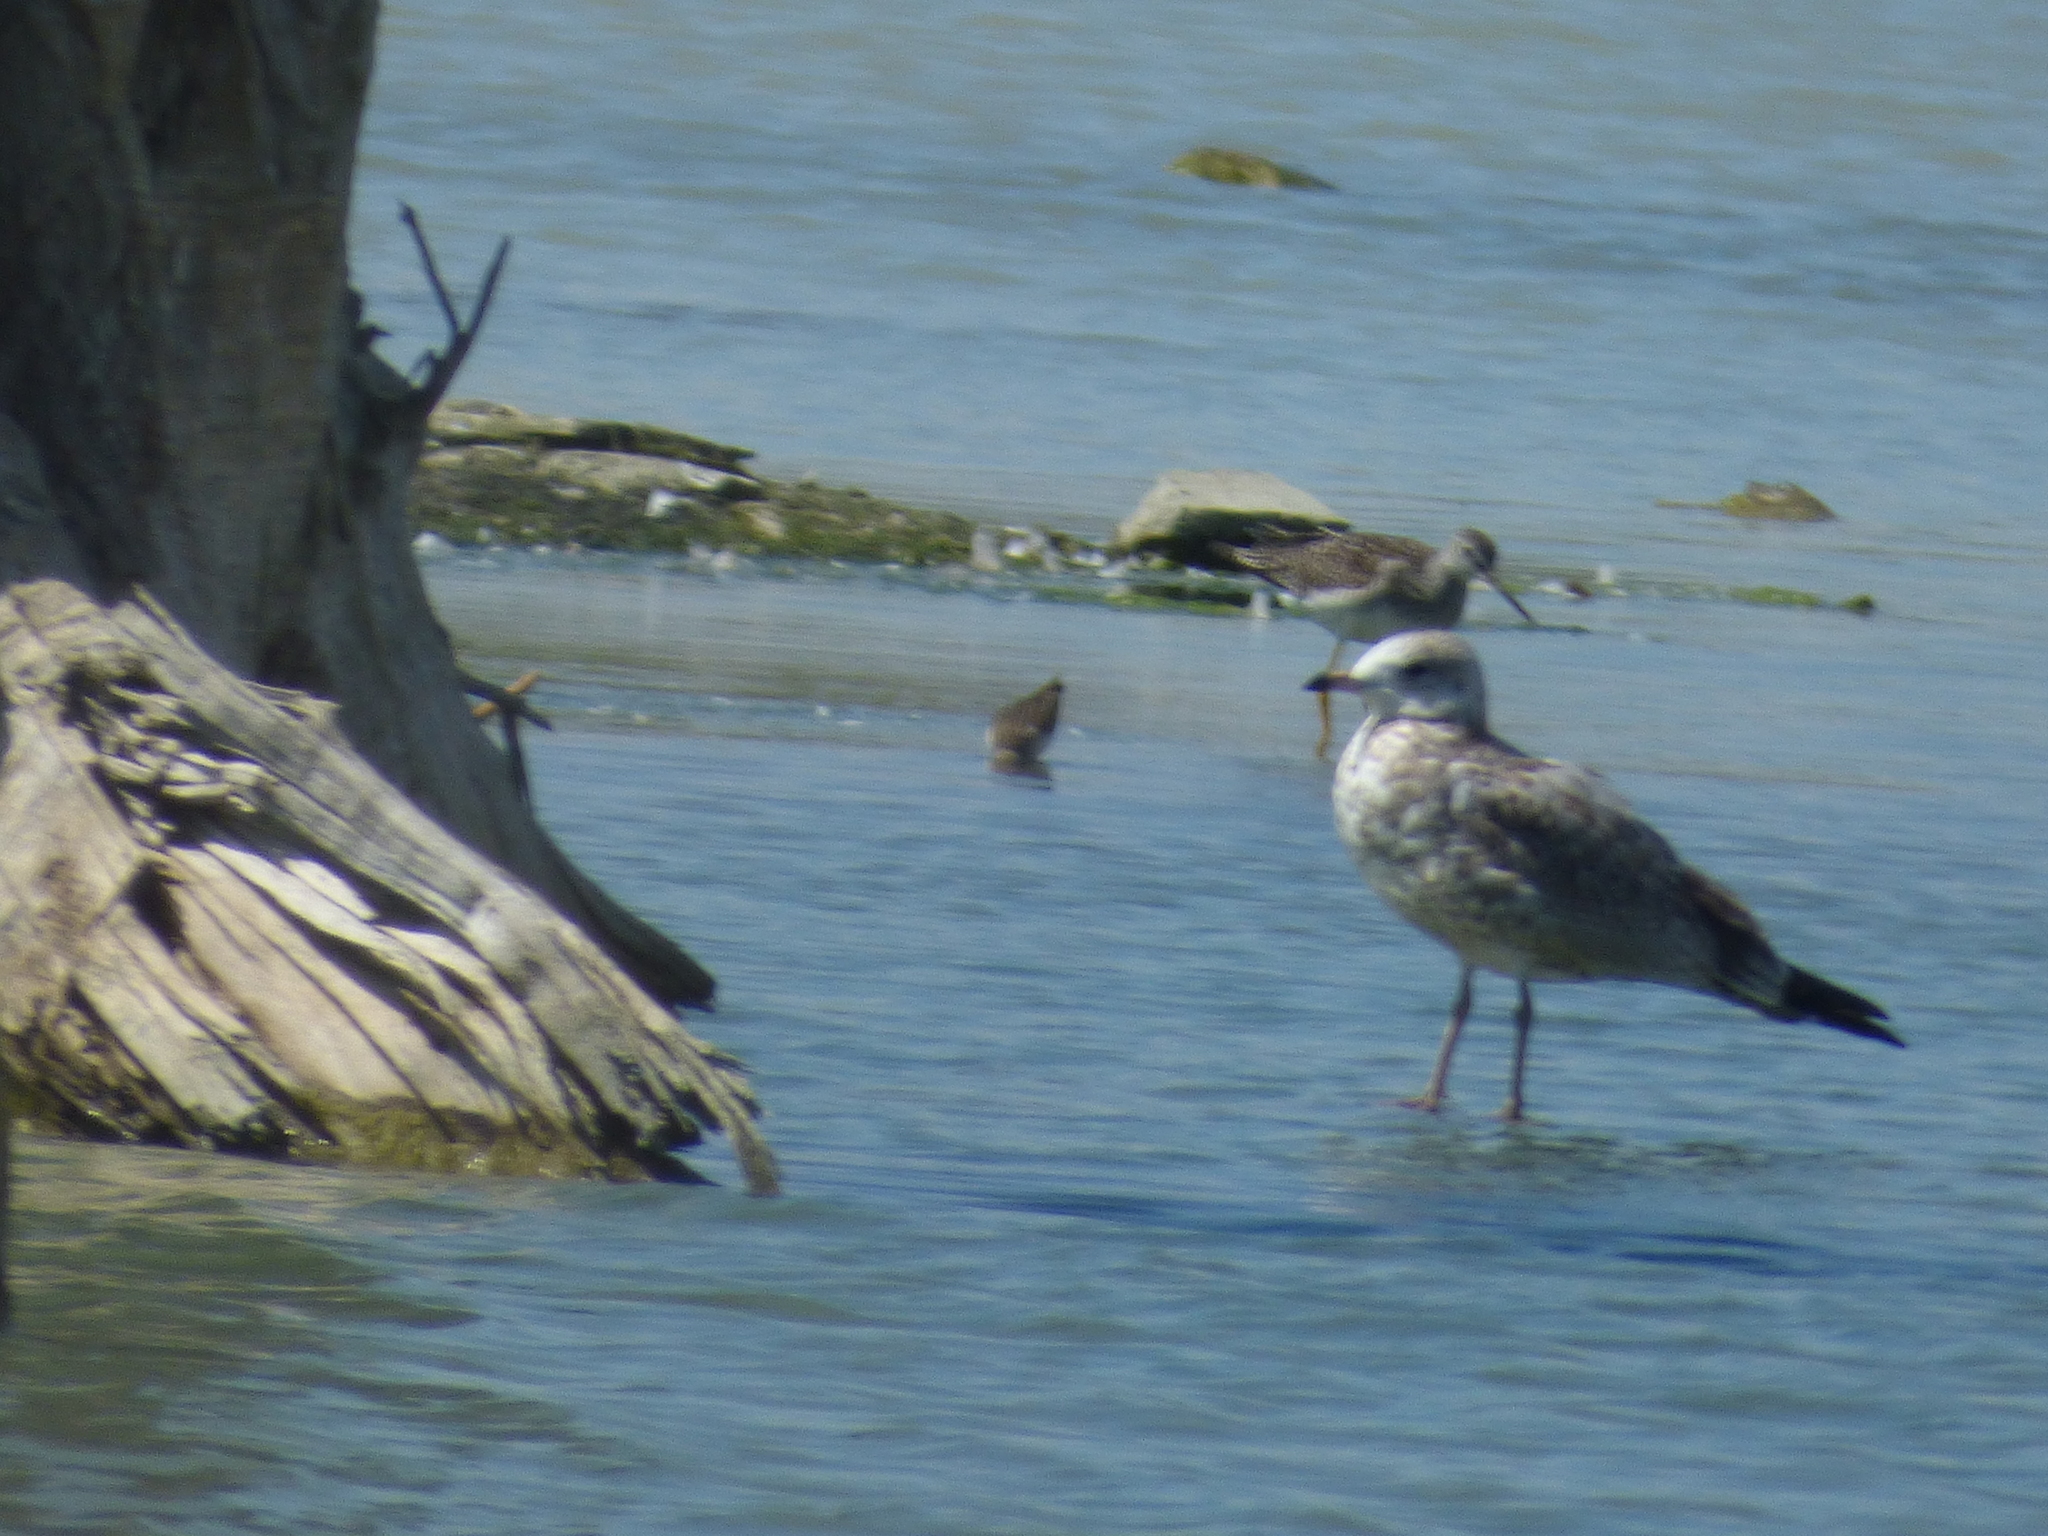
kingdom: Animalia
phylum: Chordata
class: Aves
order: Charadriiformes
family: Laridae
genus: Larus
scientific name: Larus delawarensis
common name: Ring-billed gull
